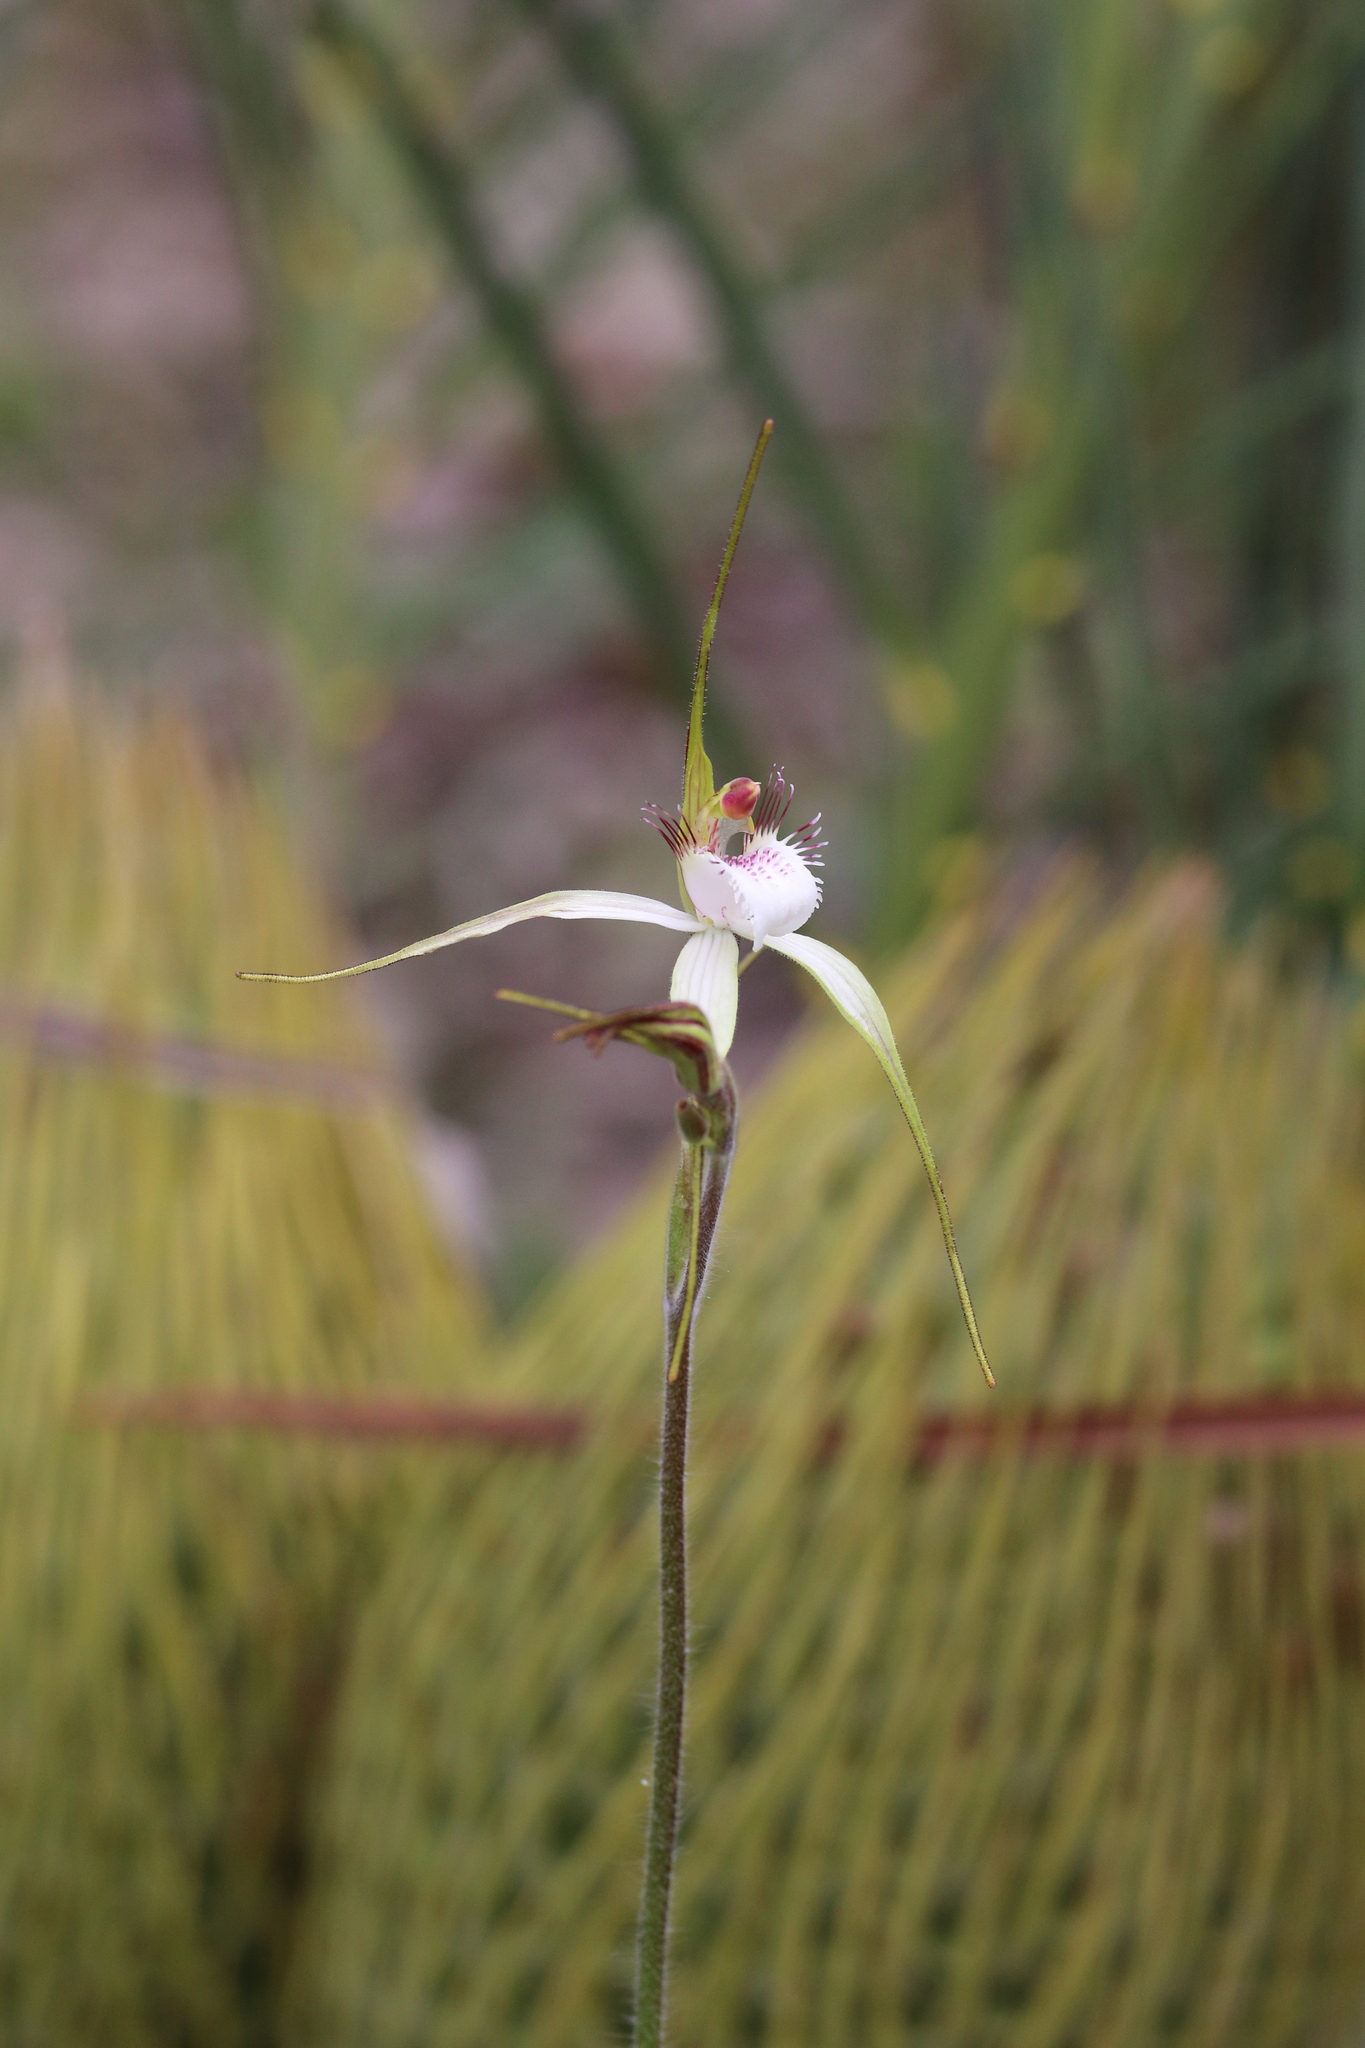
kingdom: Plantae
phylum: Tracheophyta
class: Liliopsida
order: Asparagales
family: Orchidaceae
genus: Caladenia
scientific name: Caladenia speciosa
